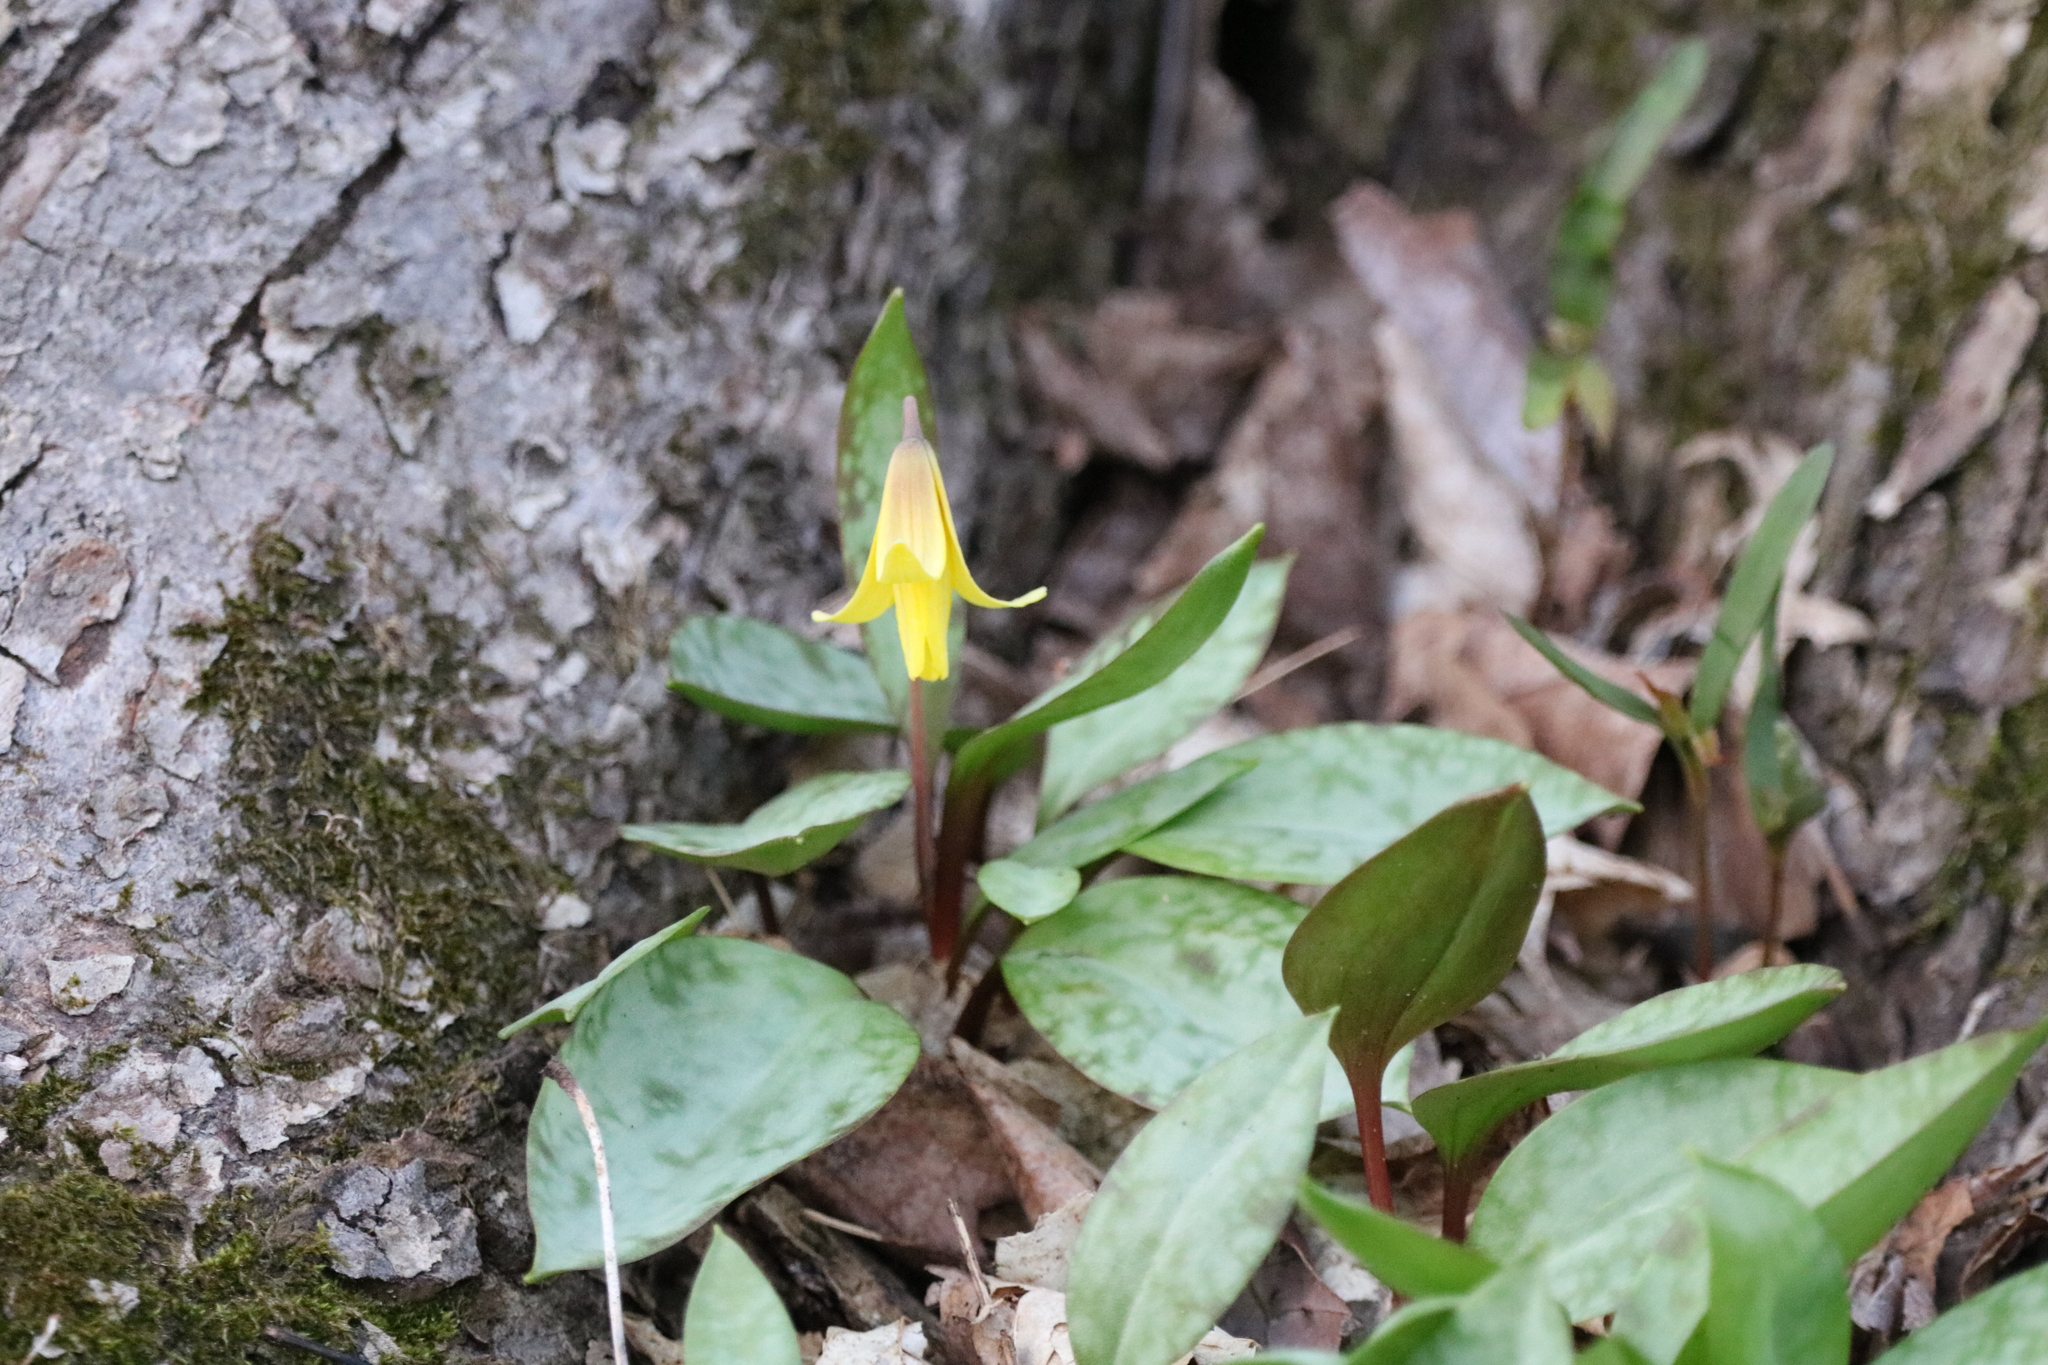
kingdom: Plantae
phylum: Tracheophyta
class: Liliopsida
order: Liliales
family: Liliaceae
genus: Erythronium
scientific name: Erythronium americanum
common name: Yellow adder's-tongue
